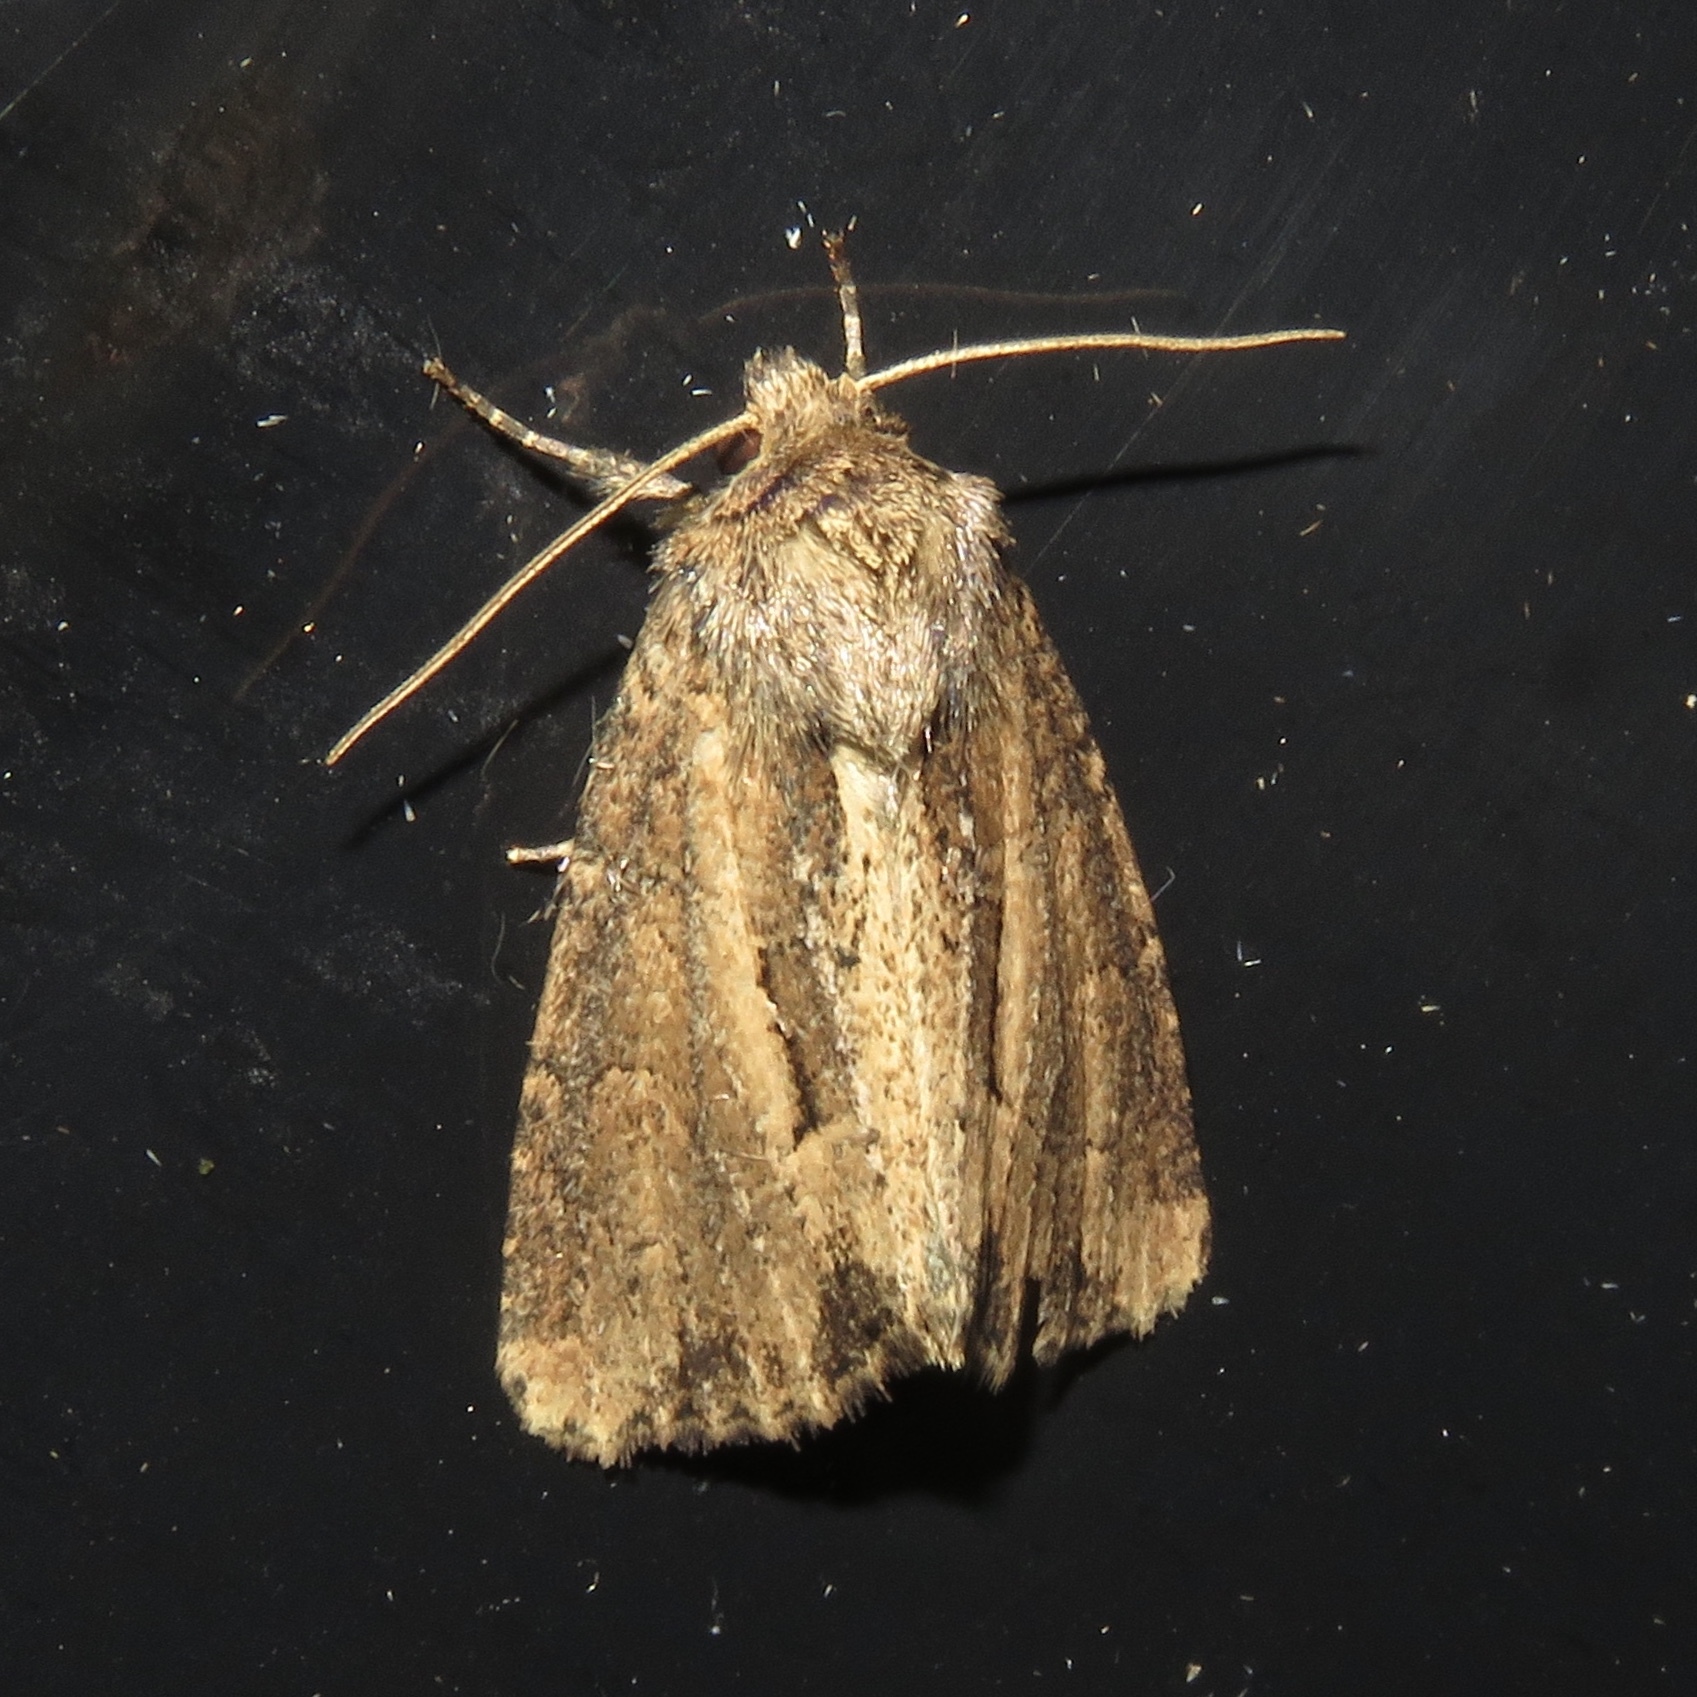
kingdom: Animalia
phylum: Arthropoda
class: Insecta
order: Lepidoptera
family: Noctuidae
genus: Xylomoia
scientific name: Xylomoia chagnoni
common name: Reed canary grass borer moth
